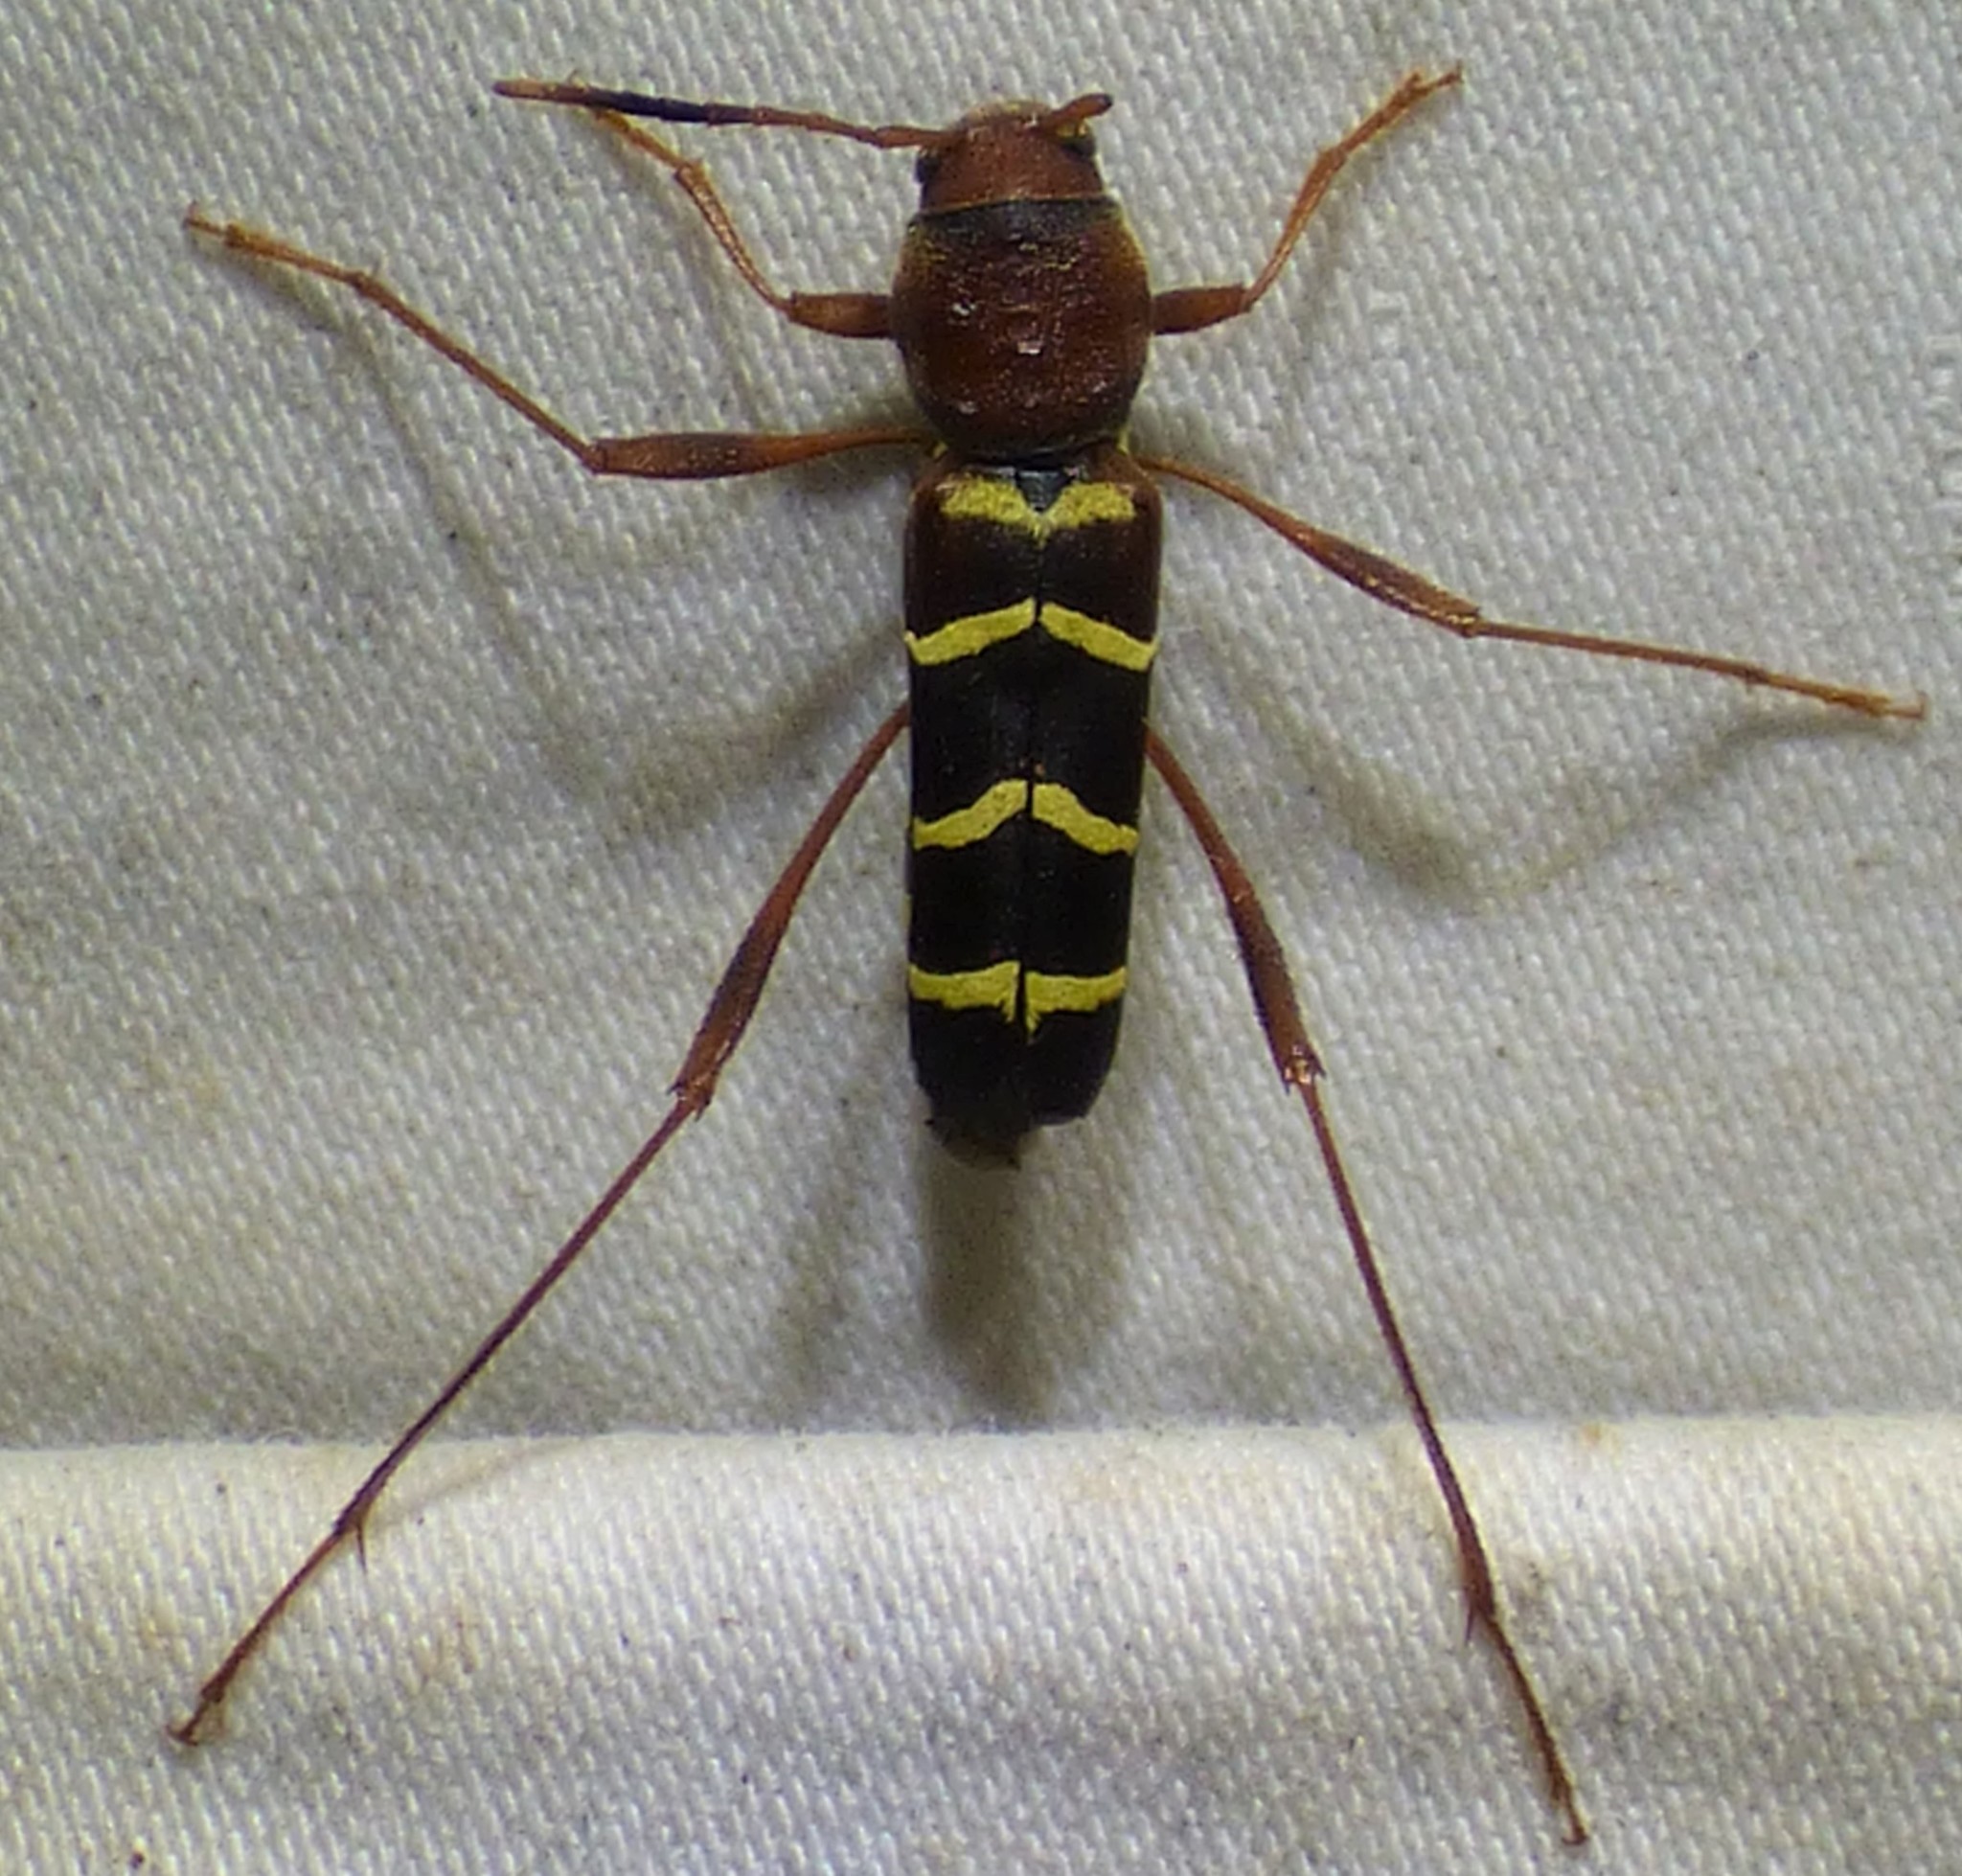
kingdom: Animalia
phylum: Arthropoda
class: Insecta
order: Coleoptera
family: Cerambycidae
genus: Neoclytus
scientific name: Neoclytus acuminatus
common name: Read-headed ash borer
